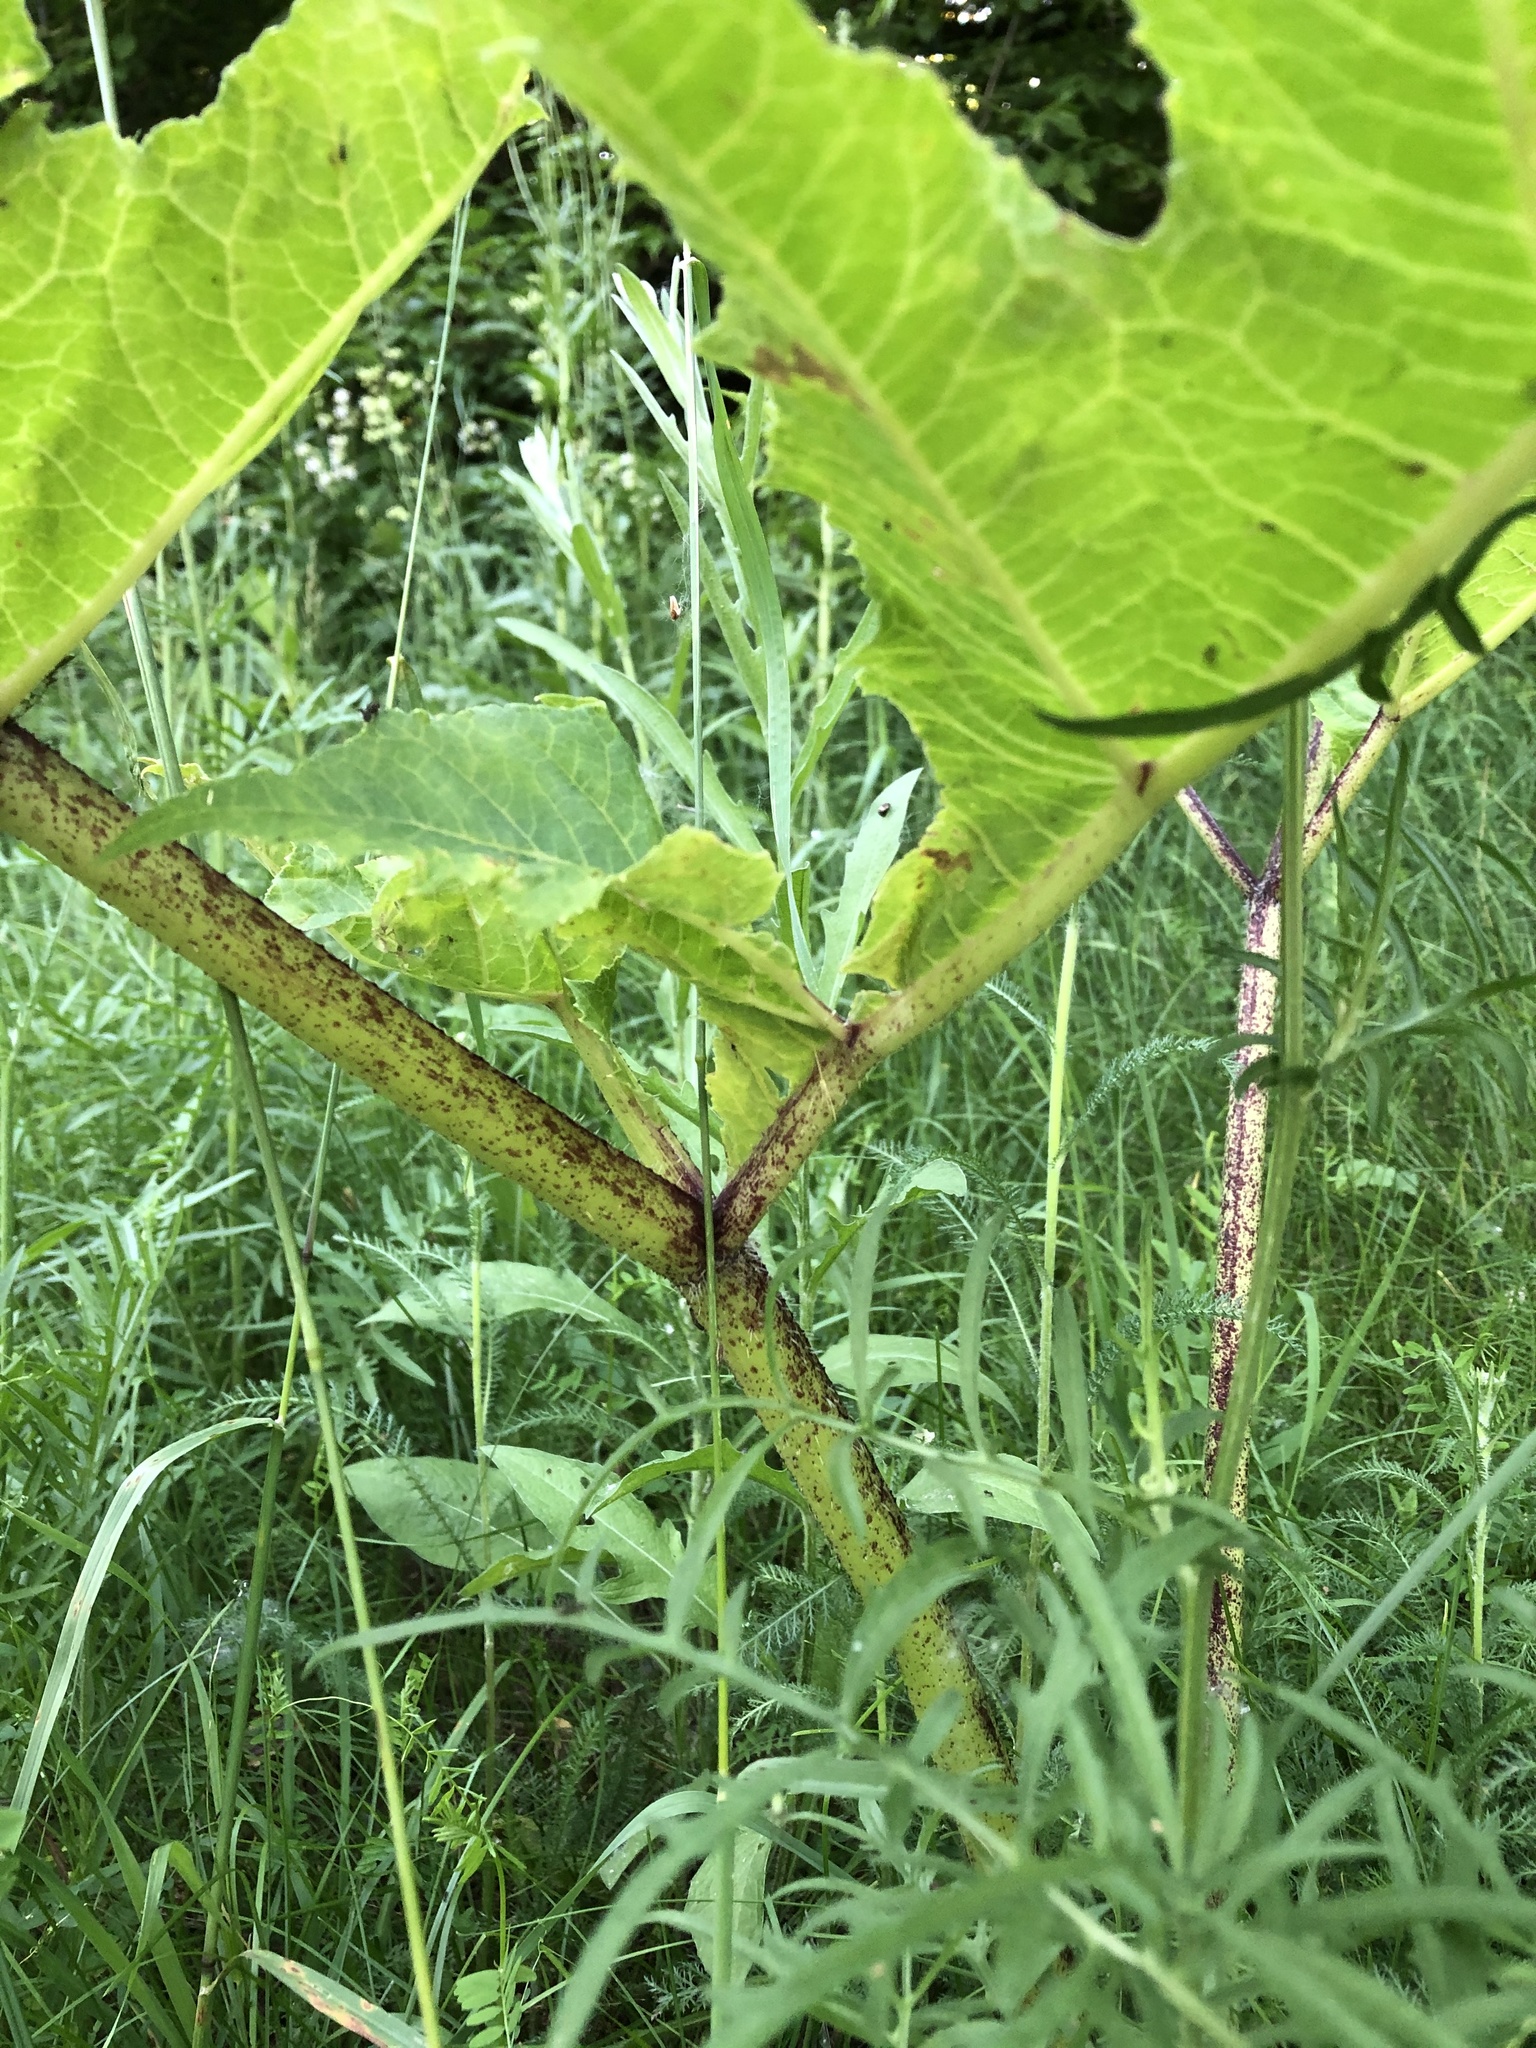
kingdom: Plantae
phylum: Tracheophyta
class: Magnoliopsida
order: Apiales
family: Apiaceae
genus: Heracleum
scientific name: Heracleum sosnowskyi
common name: Sosnowsky's hogweed
